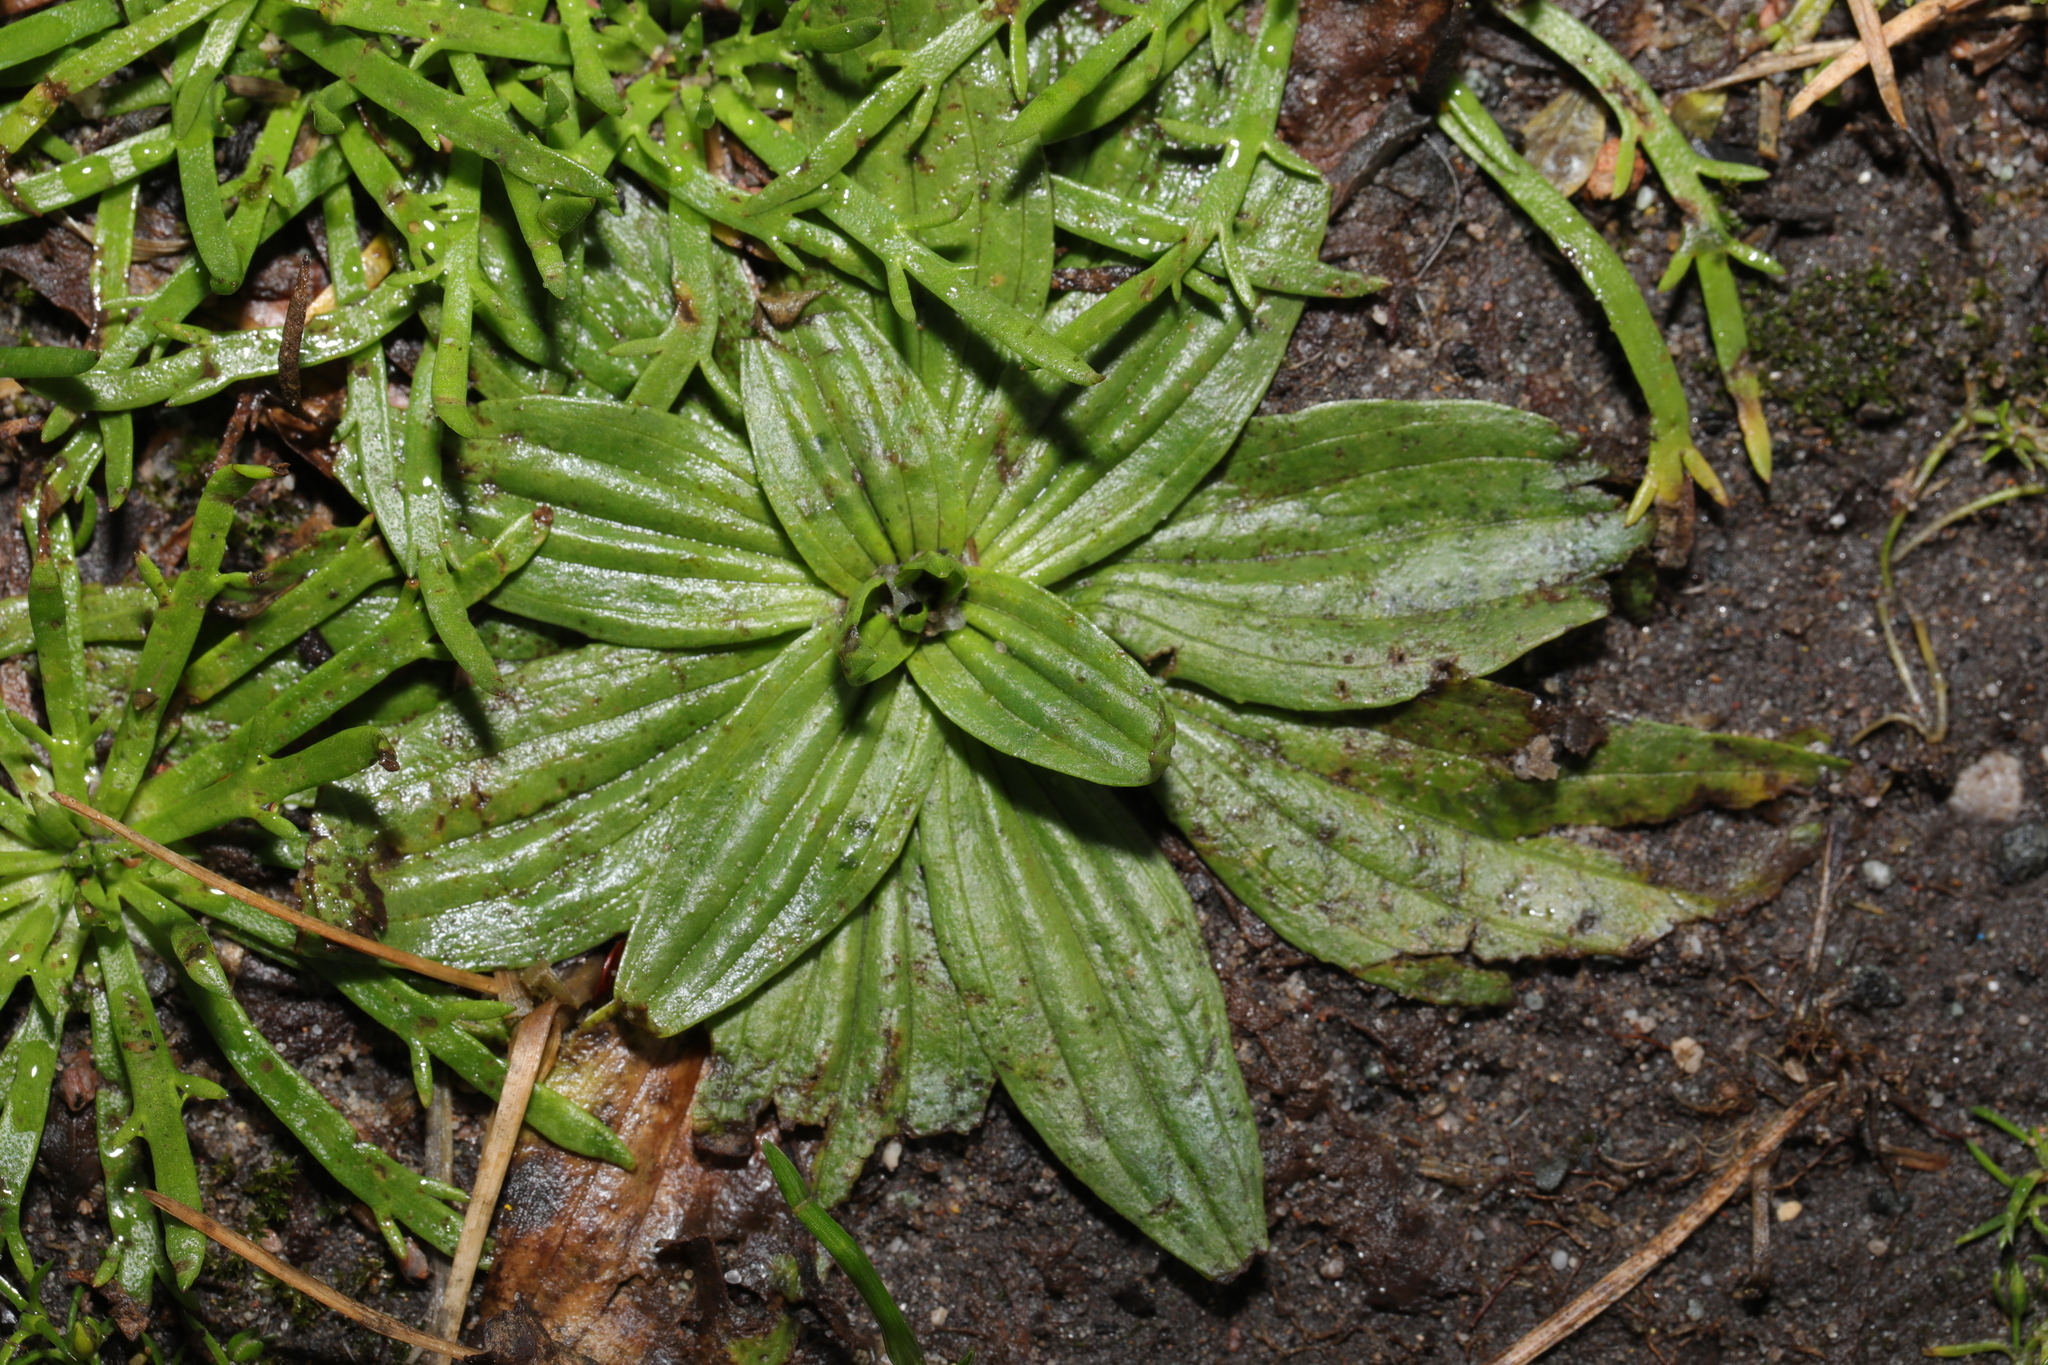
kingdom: Plantae
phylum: Tracheophyta
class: Magnoliopsida
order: Lamiales
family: Plantaginaceae
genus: Plantago
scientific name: Plantago lanceolata
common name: Ribwort plantain
